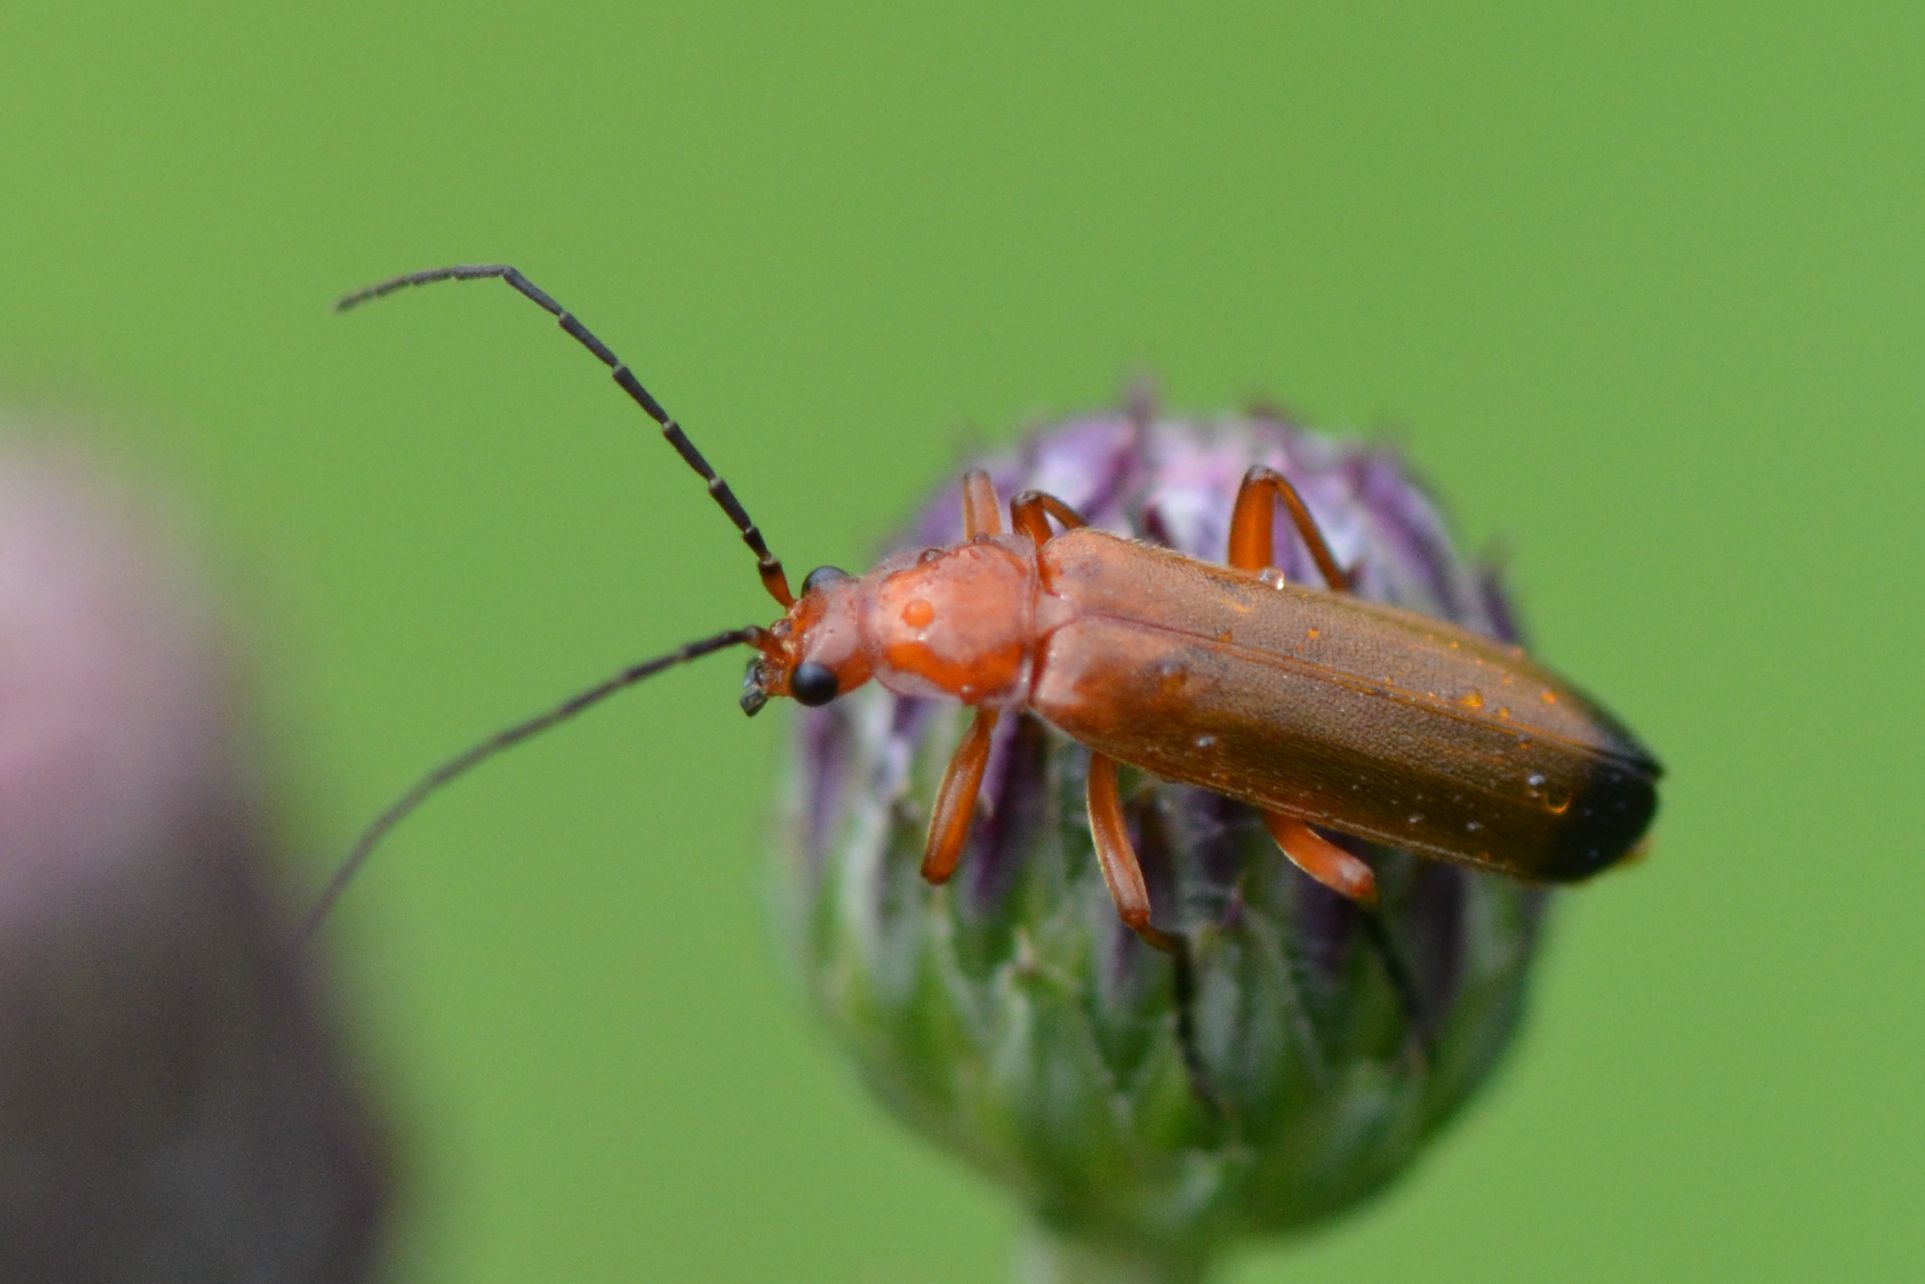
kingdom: Animalia
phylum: Arthropoda
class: Insecta
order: Coleoptera
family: Cantharidae
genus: Rhagonycha
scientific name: Rhagonycha fulva
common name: Common red soldier beetle
